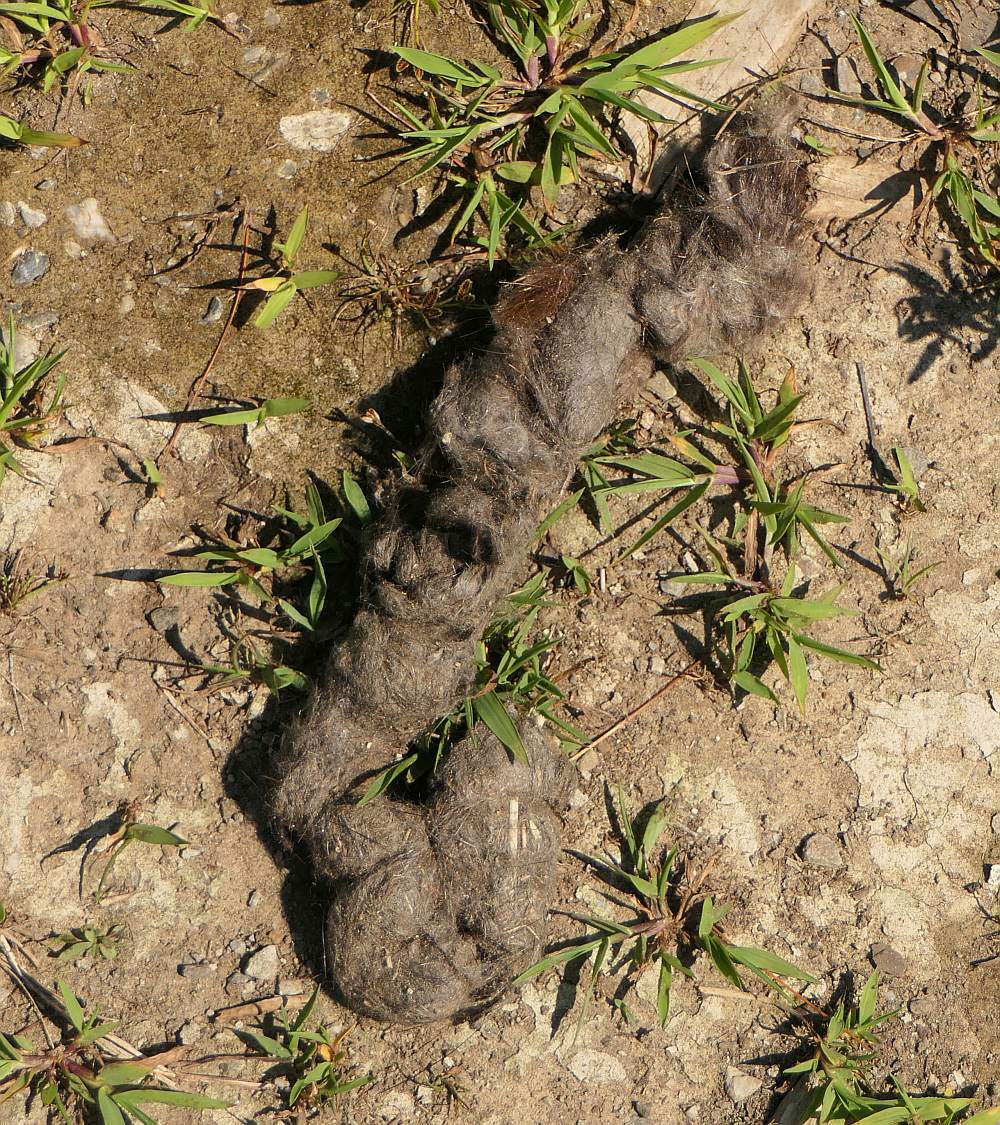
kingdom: Animalia
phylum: Chordata
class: Mammalia
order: Carnivora
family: Canidae
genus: Canis
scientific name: Canis latrans
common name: Coyote
